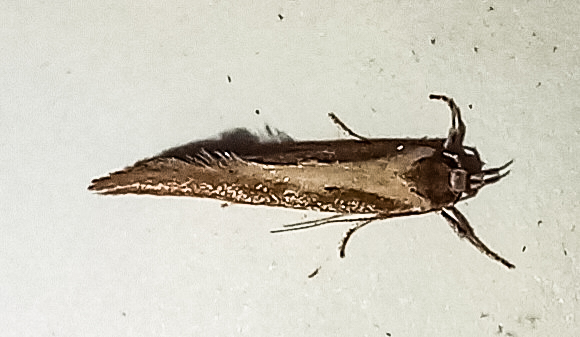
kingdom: Animalia
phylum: Arthropoda
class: Insecta
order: Lepidoptera
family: Oecophoridae
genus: Tingena
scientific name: Tingena chloradelpha
